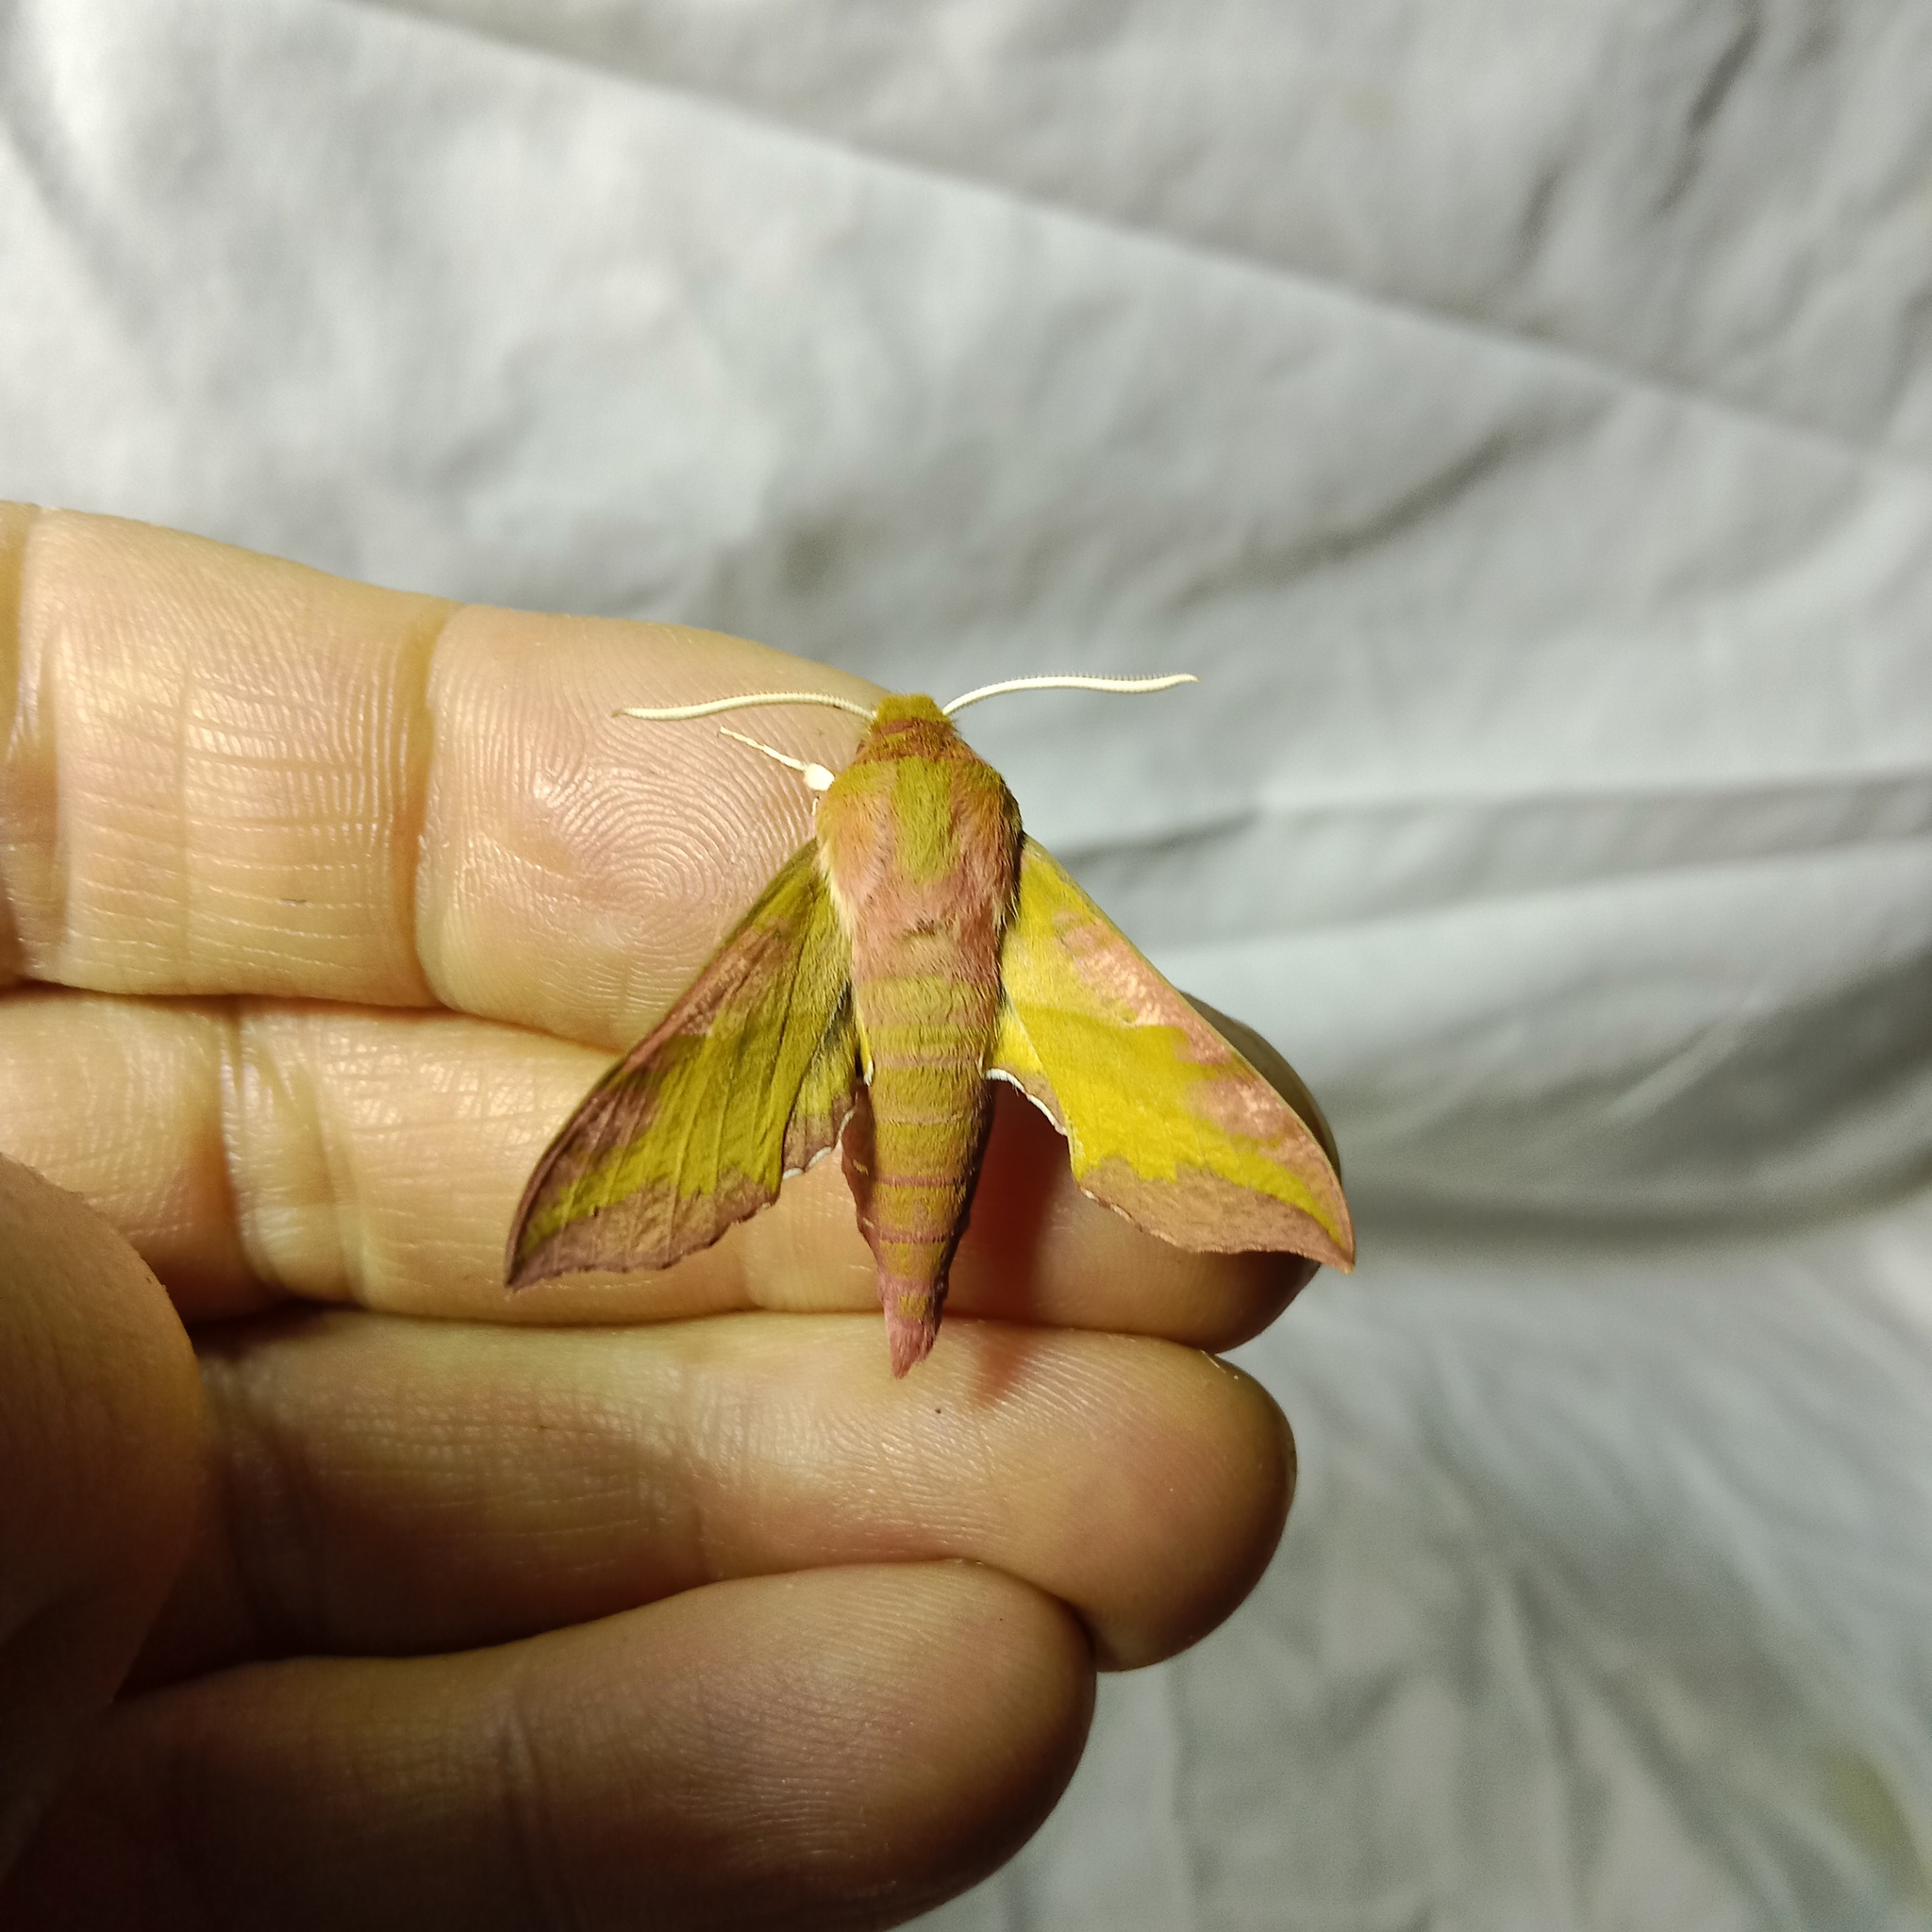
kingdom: Animalia
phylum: Arthropoda
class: Insecta
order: Lepidoptera
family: Sphingidae
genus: Deilephila
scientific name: Deilephila porcellus
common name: Small elephant hawk-moth
